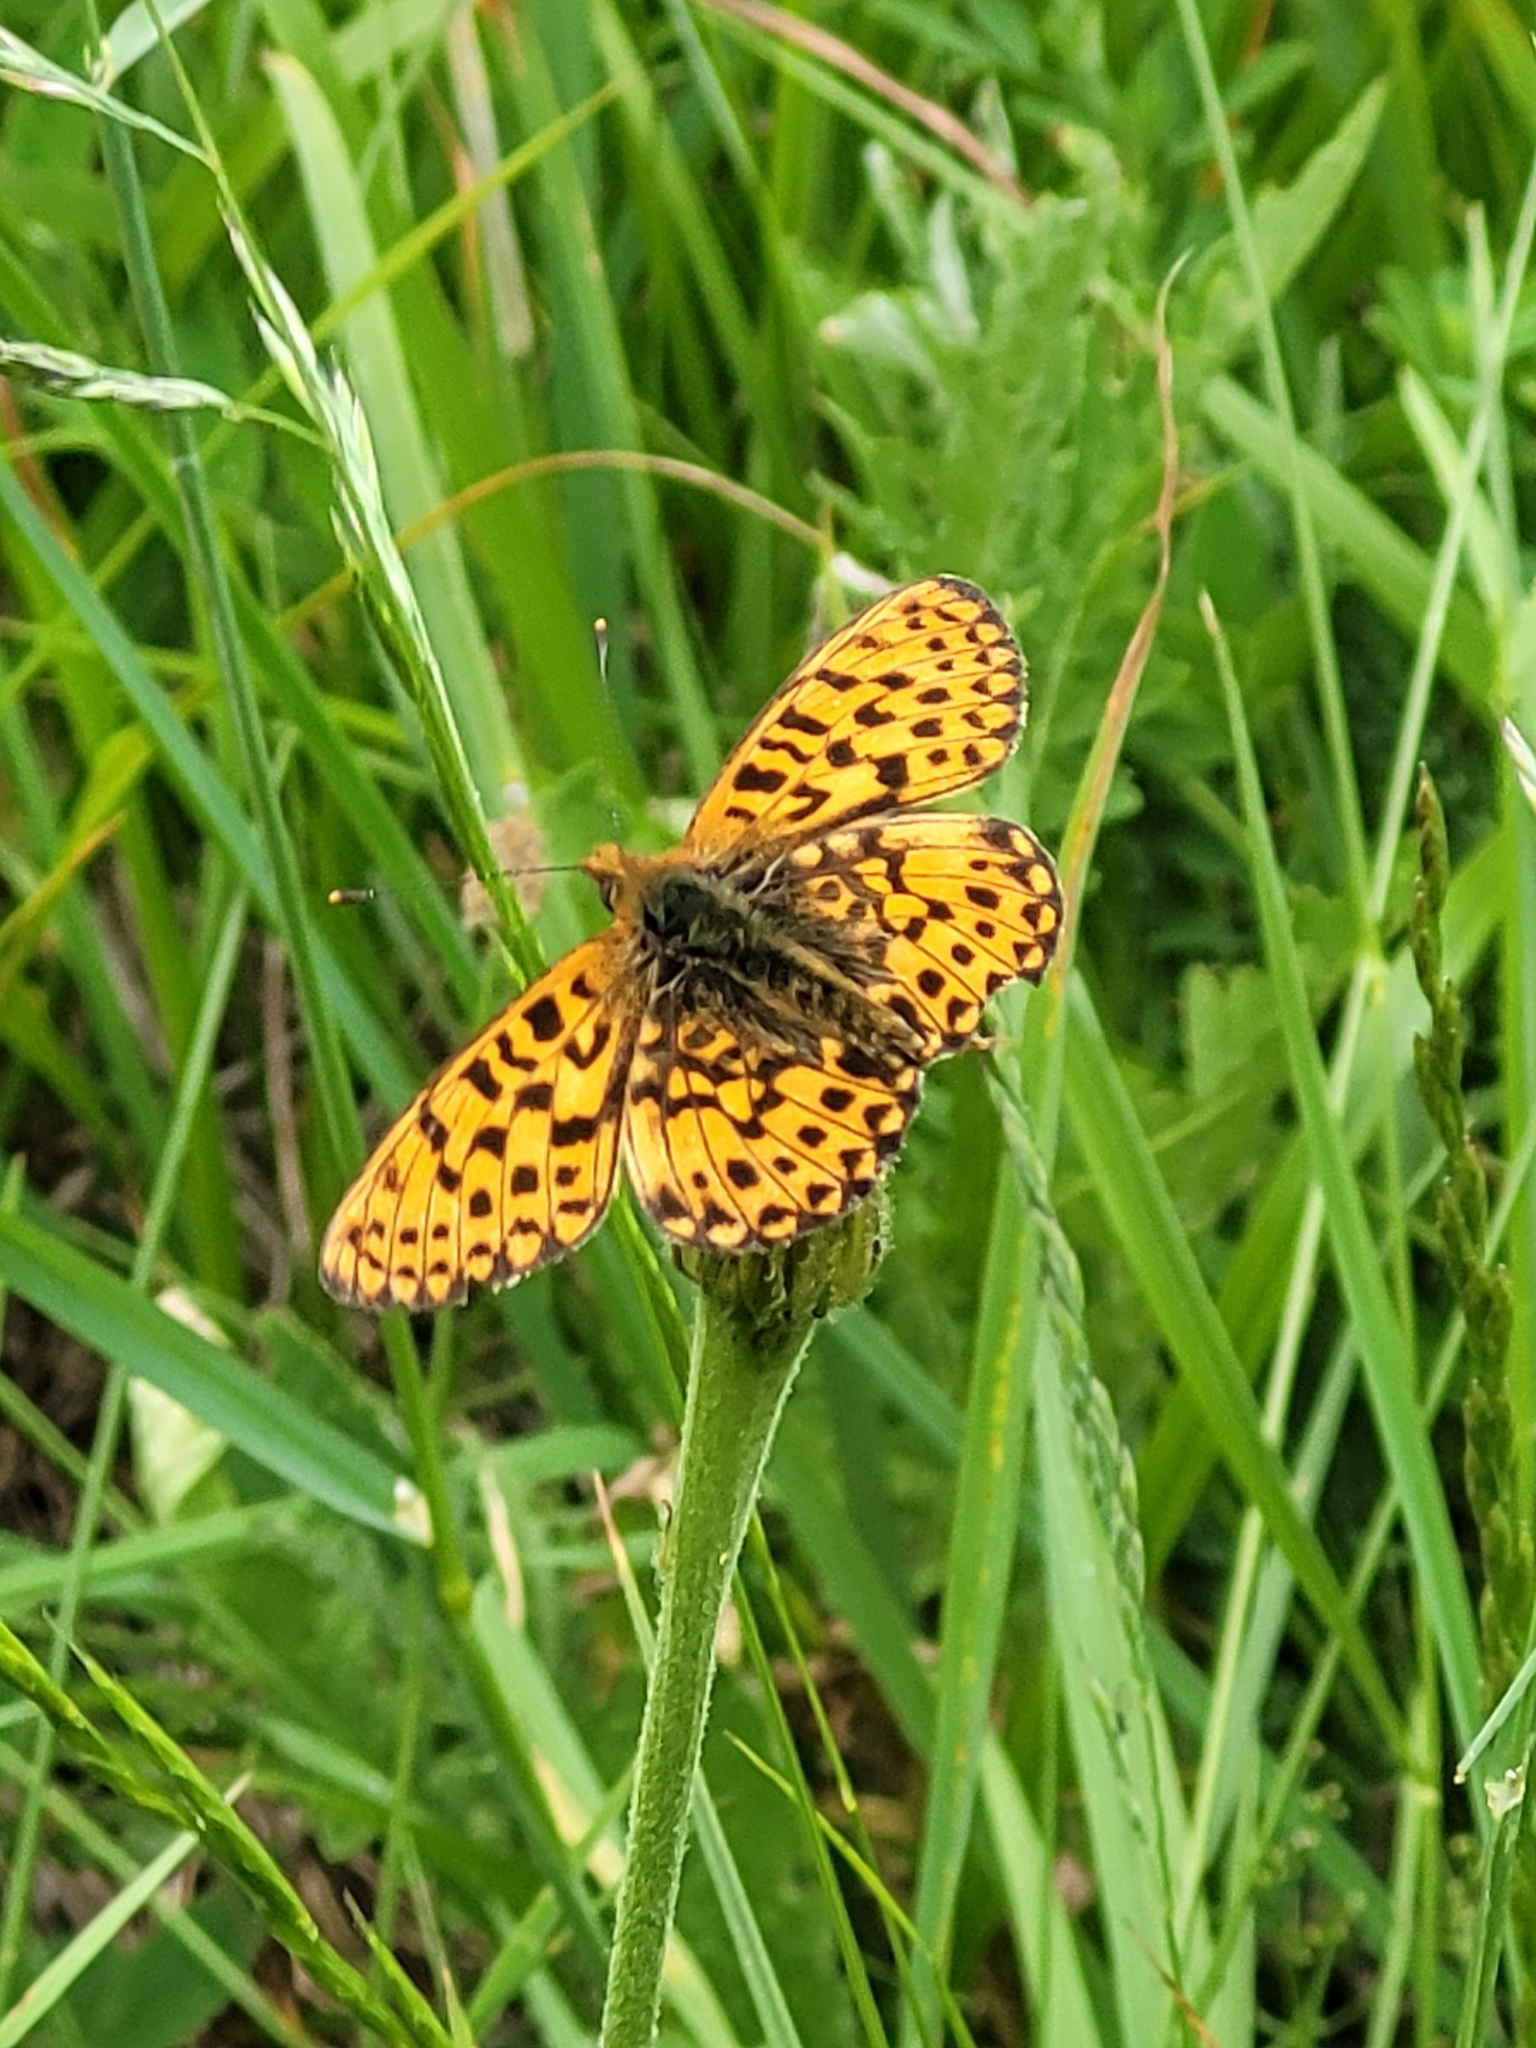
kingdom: Animalia
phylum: Arthropoda
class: Insecta
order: Lepidoptera
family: Nymphalidae
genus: Clossiana
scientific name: Clossiana euphrosyne
